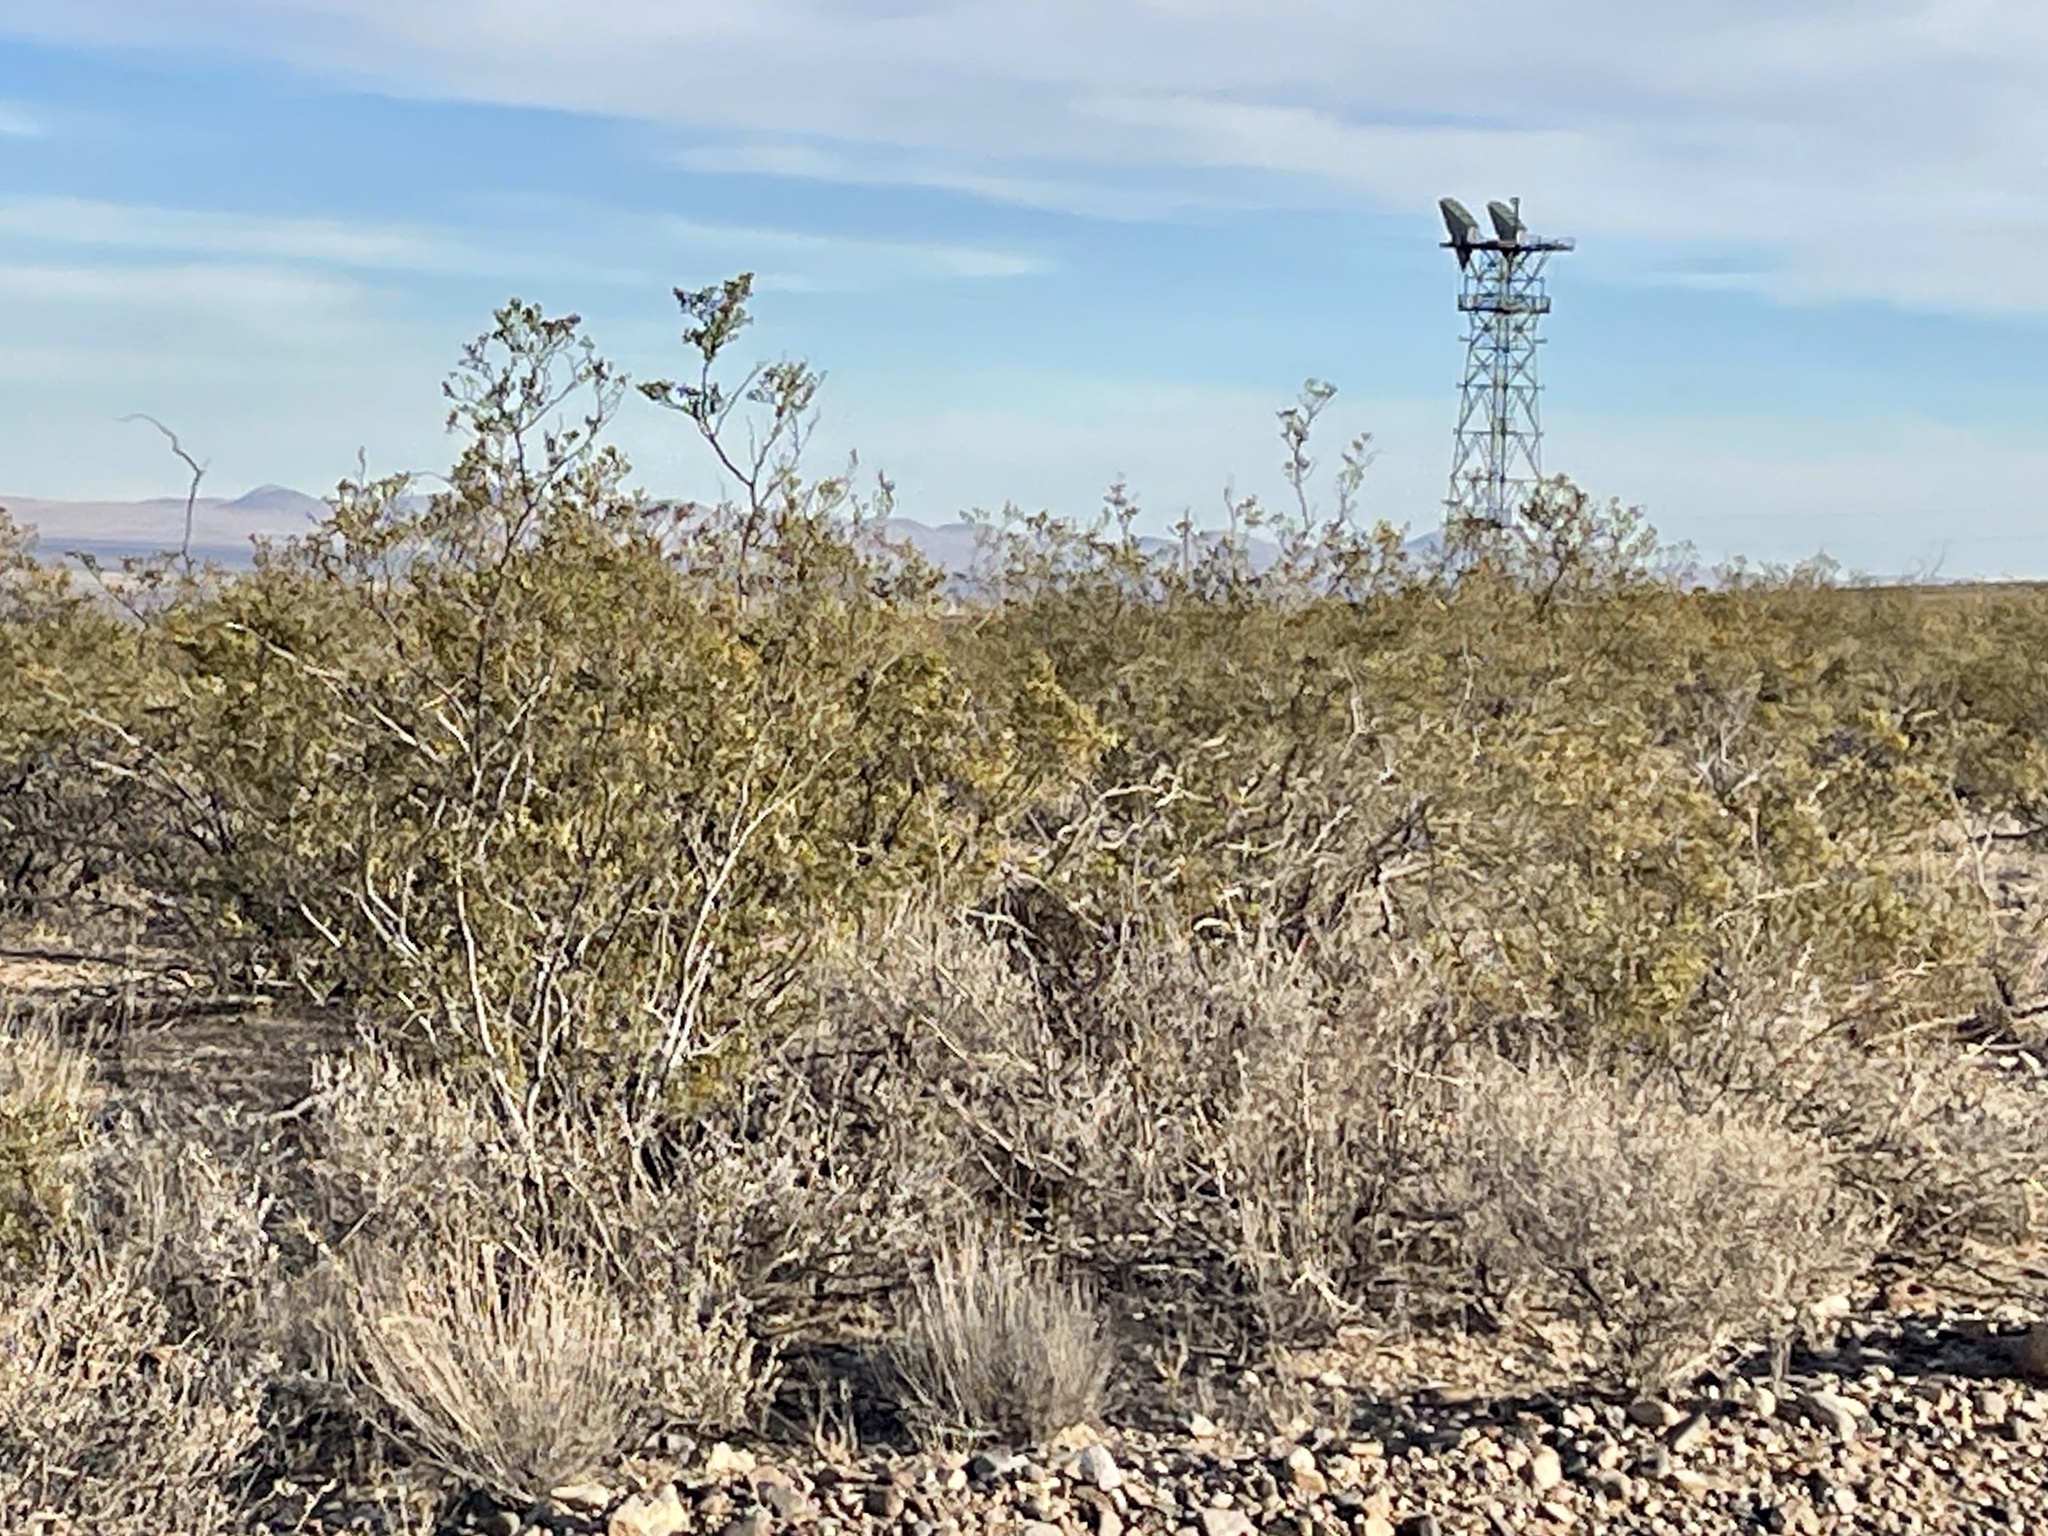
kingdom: Plantae
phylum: Tracheophyta
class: Magnoliopsida
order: Zygophyllales
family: Zygophyllaceae
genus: Larrea
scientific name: Larrea tridentata
